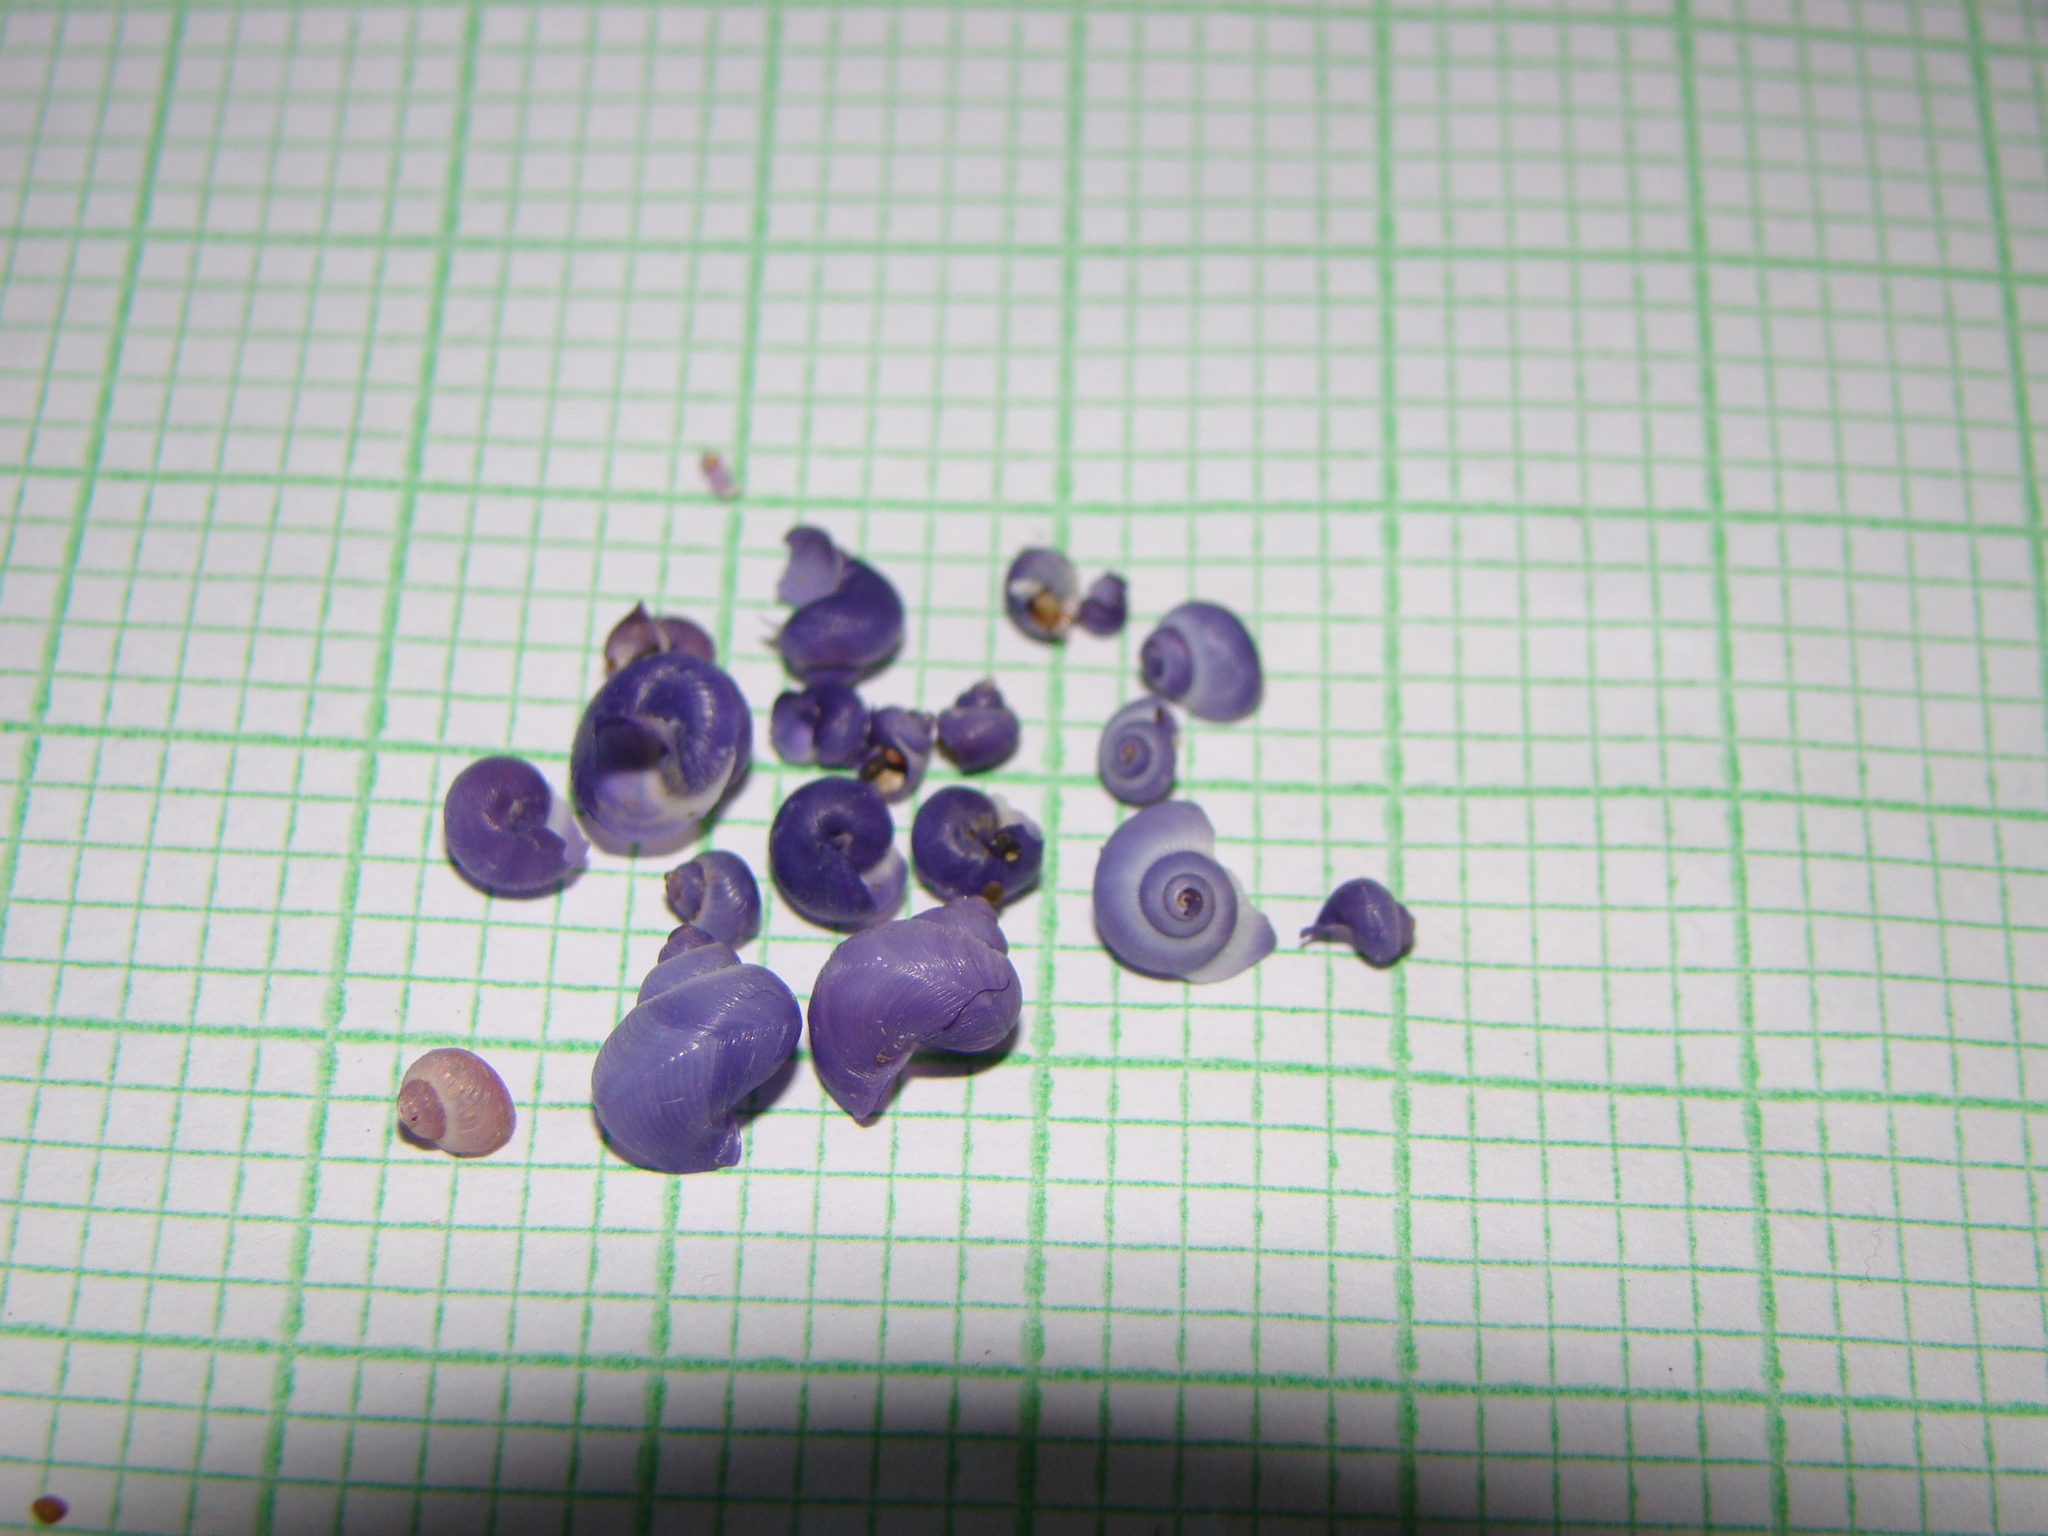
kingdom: Animalia
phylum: Mollusca
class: Gastropoda
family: Epitoniidae
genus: Janthina
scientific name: Janthina exigua
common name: Dwarf janthina
